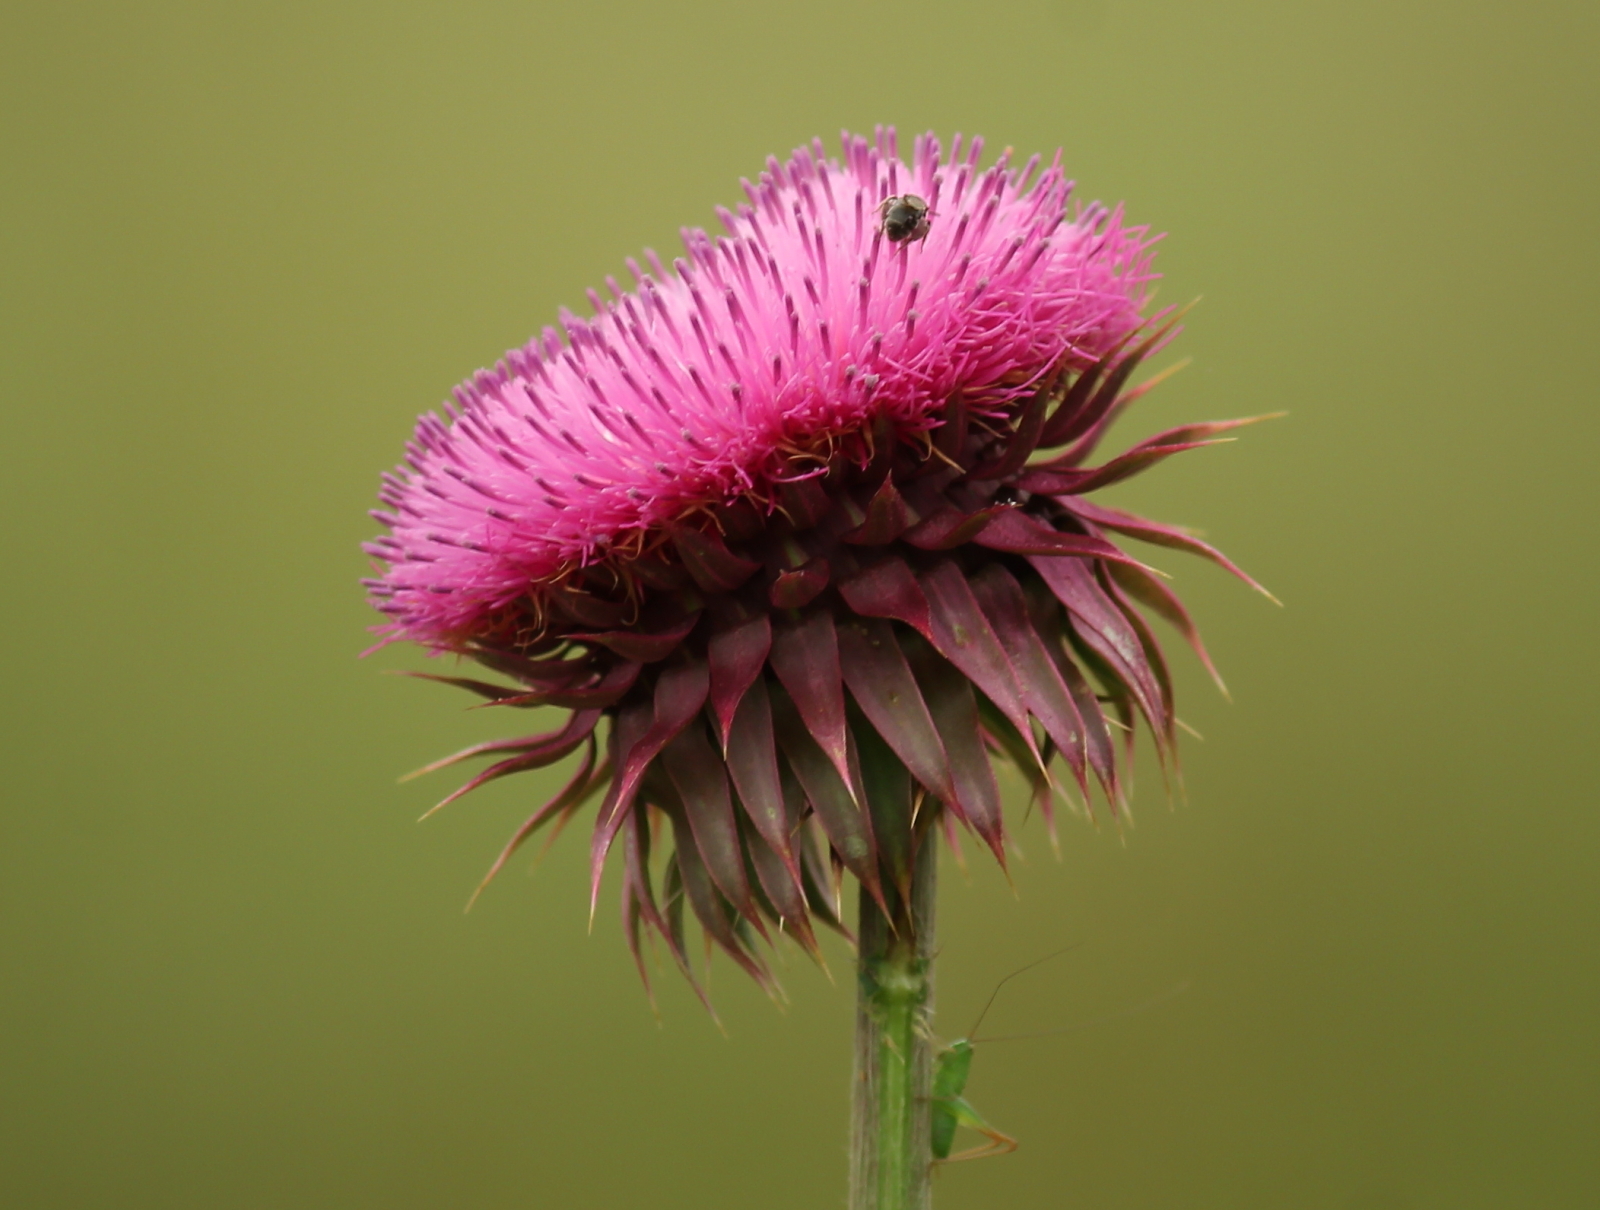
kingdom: Plantae
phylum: Tracheophyta
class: Magnoliopsida
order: Asterales
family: Asteraceae
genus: Carduus
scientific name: Carduus nutans
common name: Musk thistle
